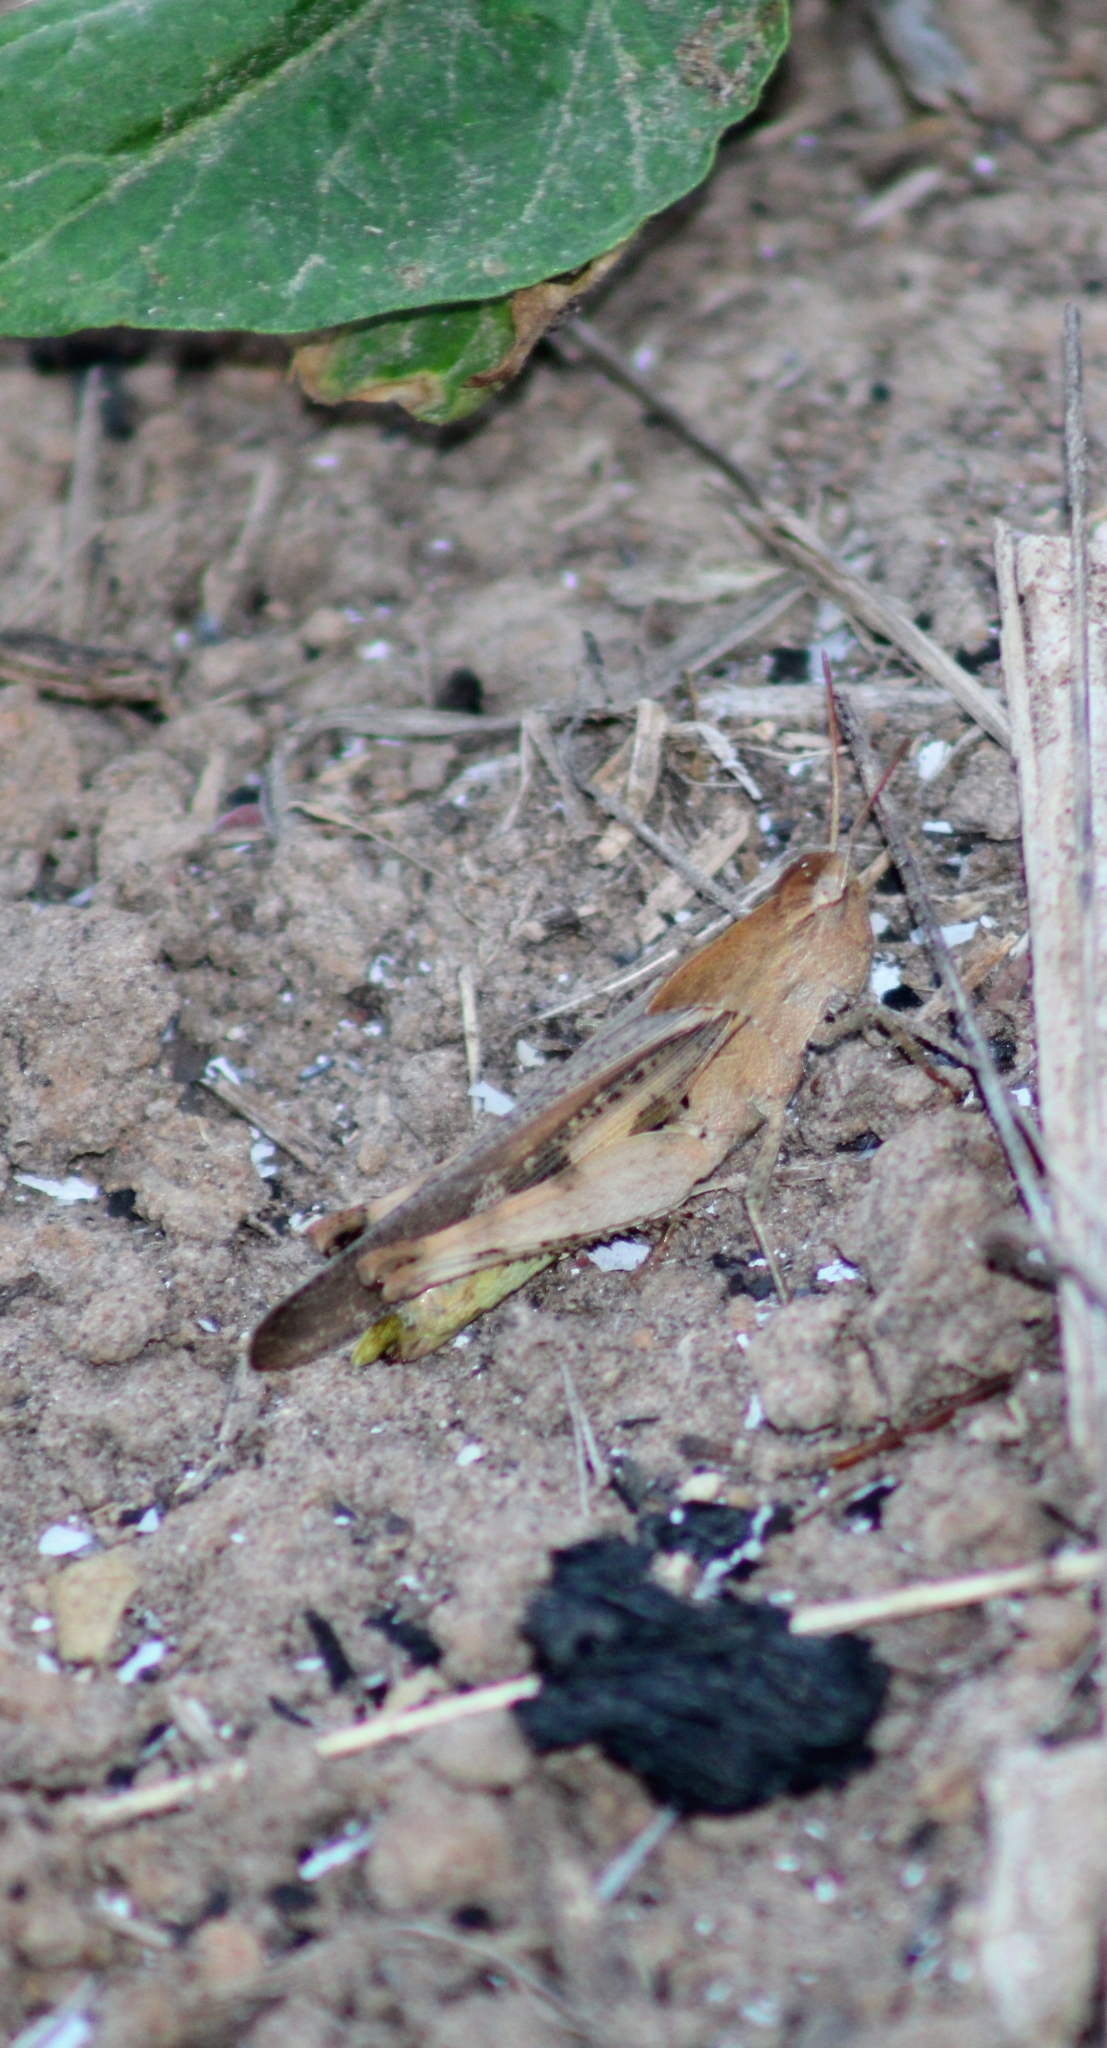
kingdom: Animalia
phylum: Arthropoda
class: Insecta
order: Orthoptera
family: Acrididae
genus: Chortophaga
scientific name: Chortophaga viridifasciata
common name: Green-striped grasshopper
